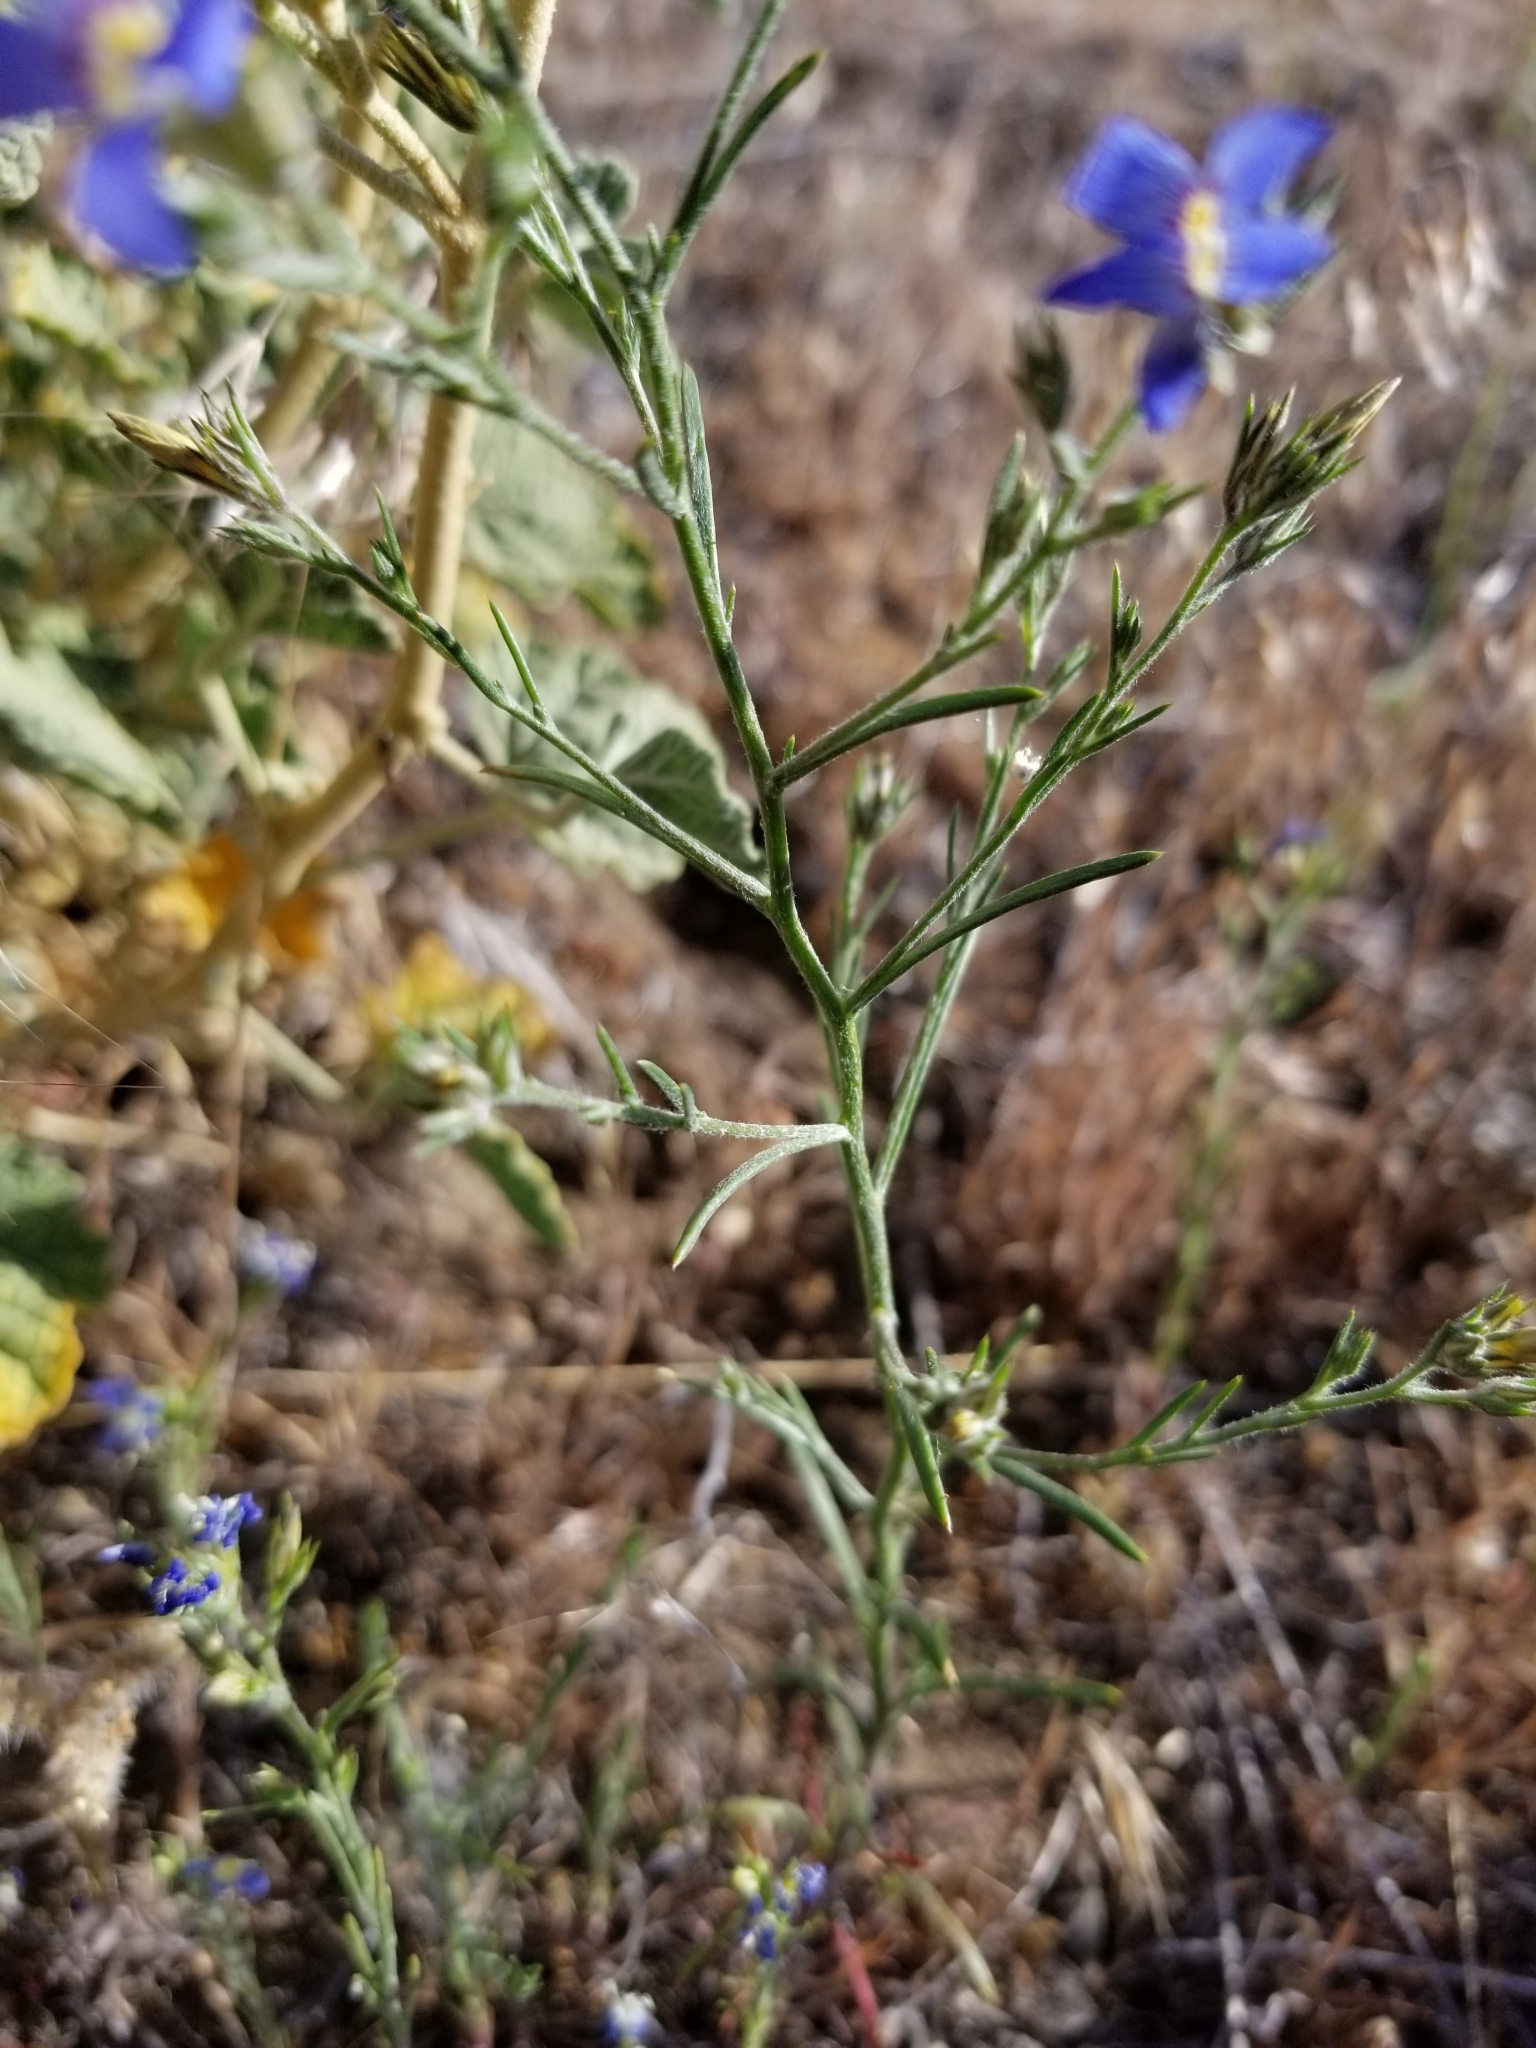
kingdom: Plantae
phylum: Tracheophyta
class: Magnoliopsida
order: Ericales
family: Polemoniaceae
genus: Eriastrum
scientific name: Eriastrum sapphirinum
